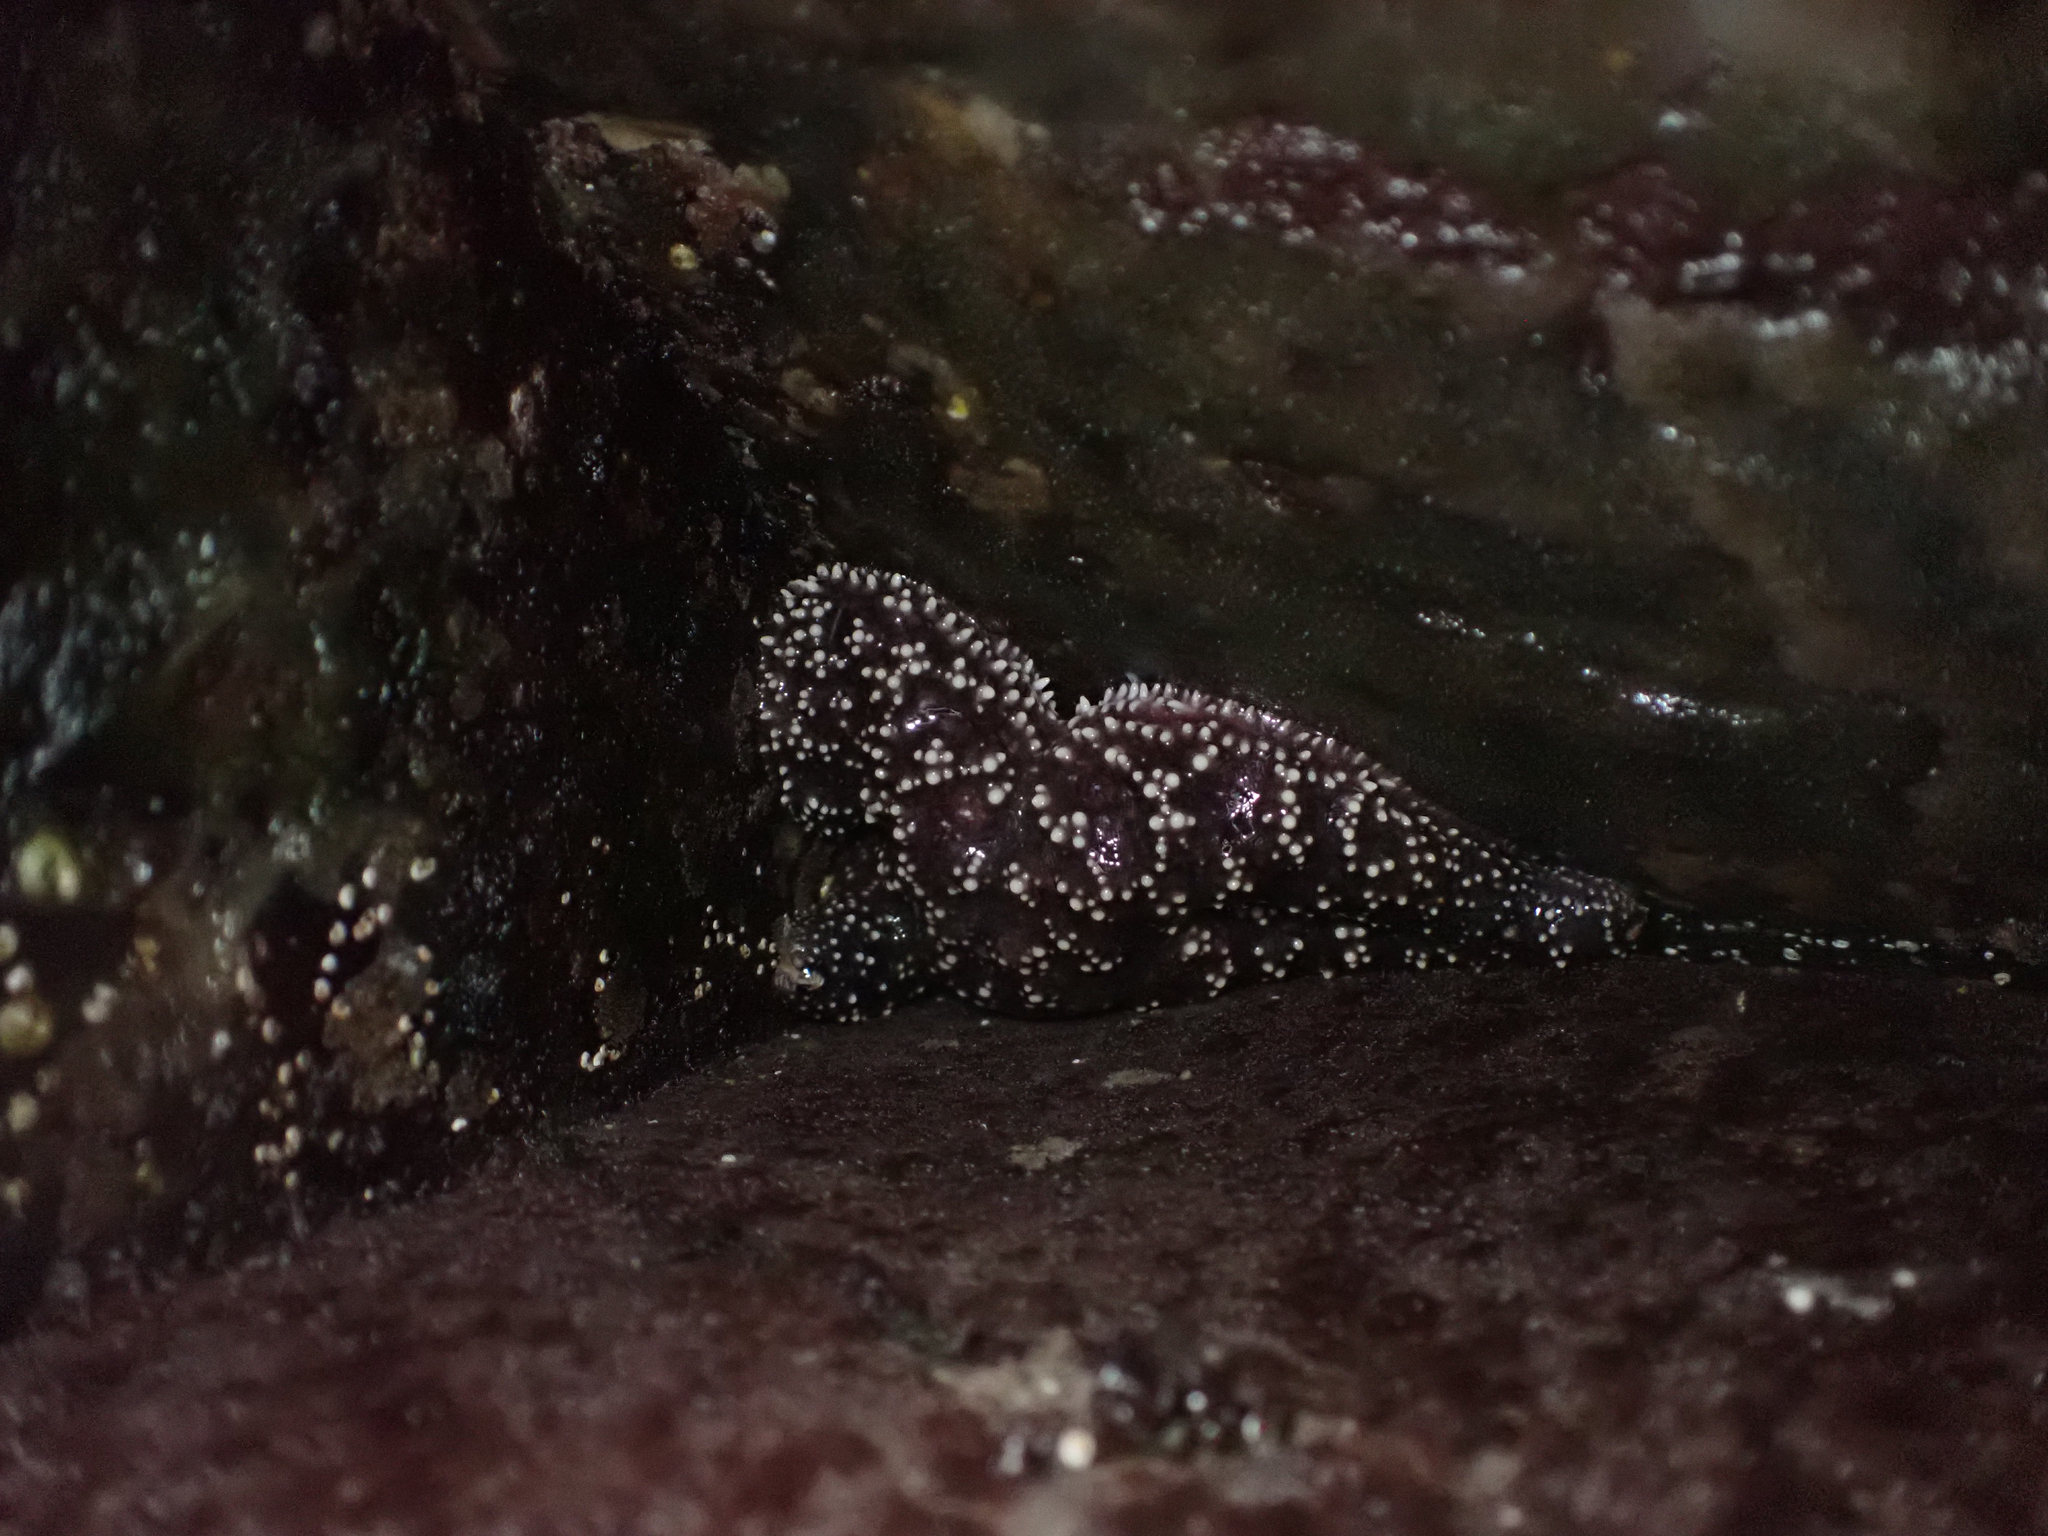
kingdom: Animalia
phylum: Echinodermata
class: Asteroidea
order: Forcipulatida
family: Asteriidae
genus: Pisaster
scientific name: Pisaster ochraceus
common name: Ochre stars
